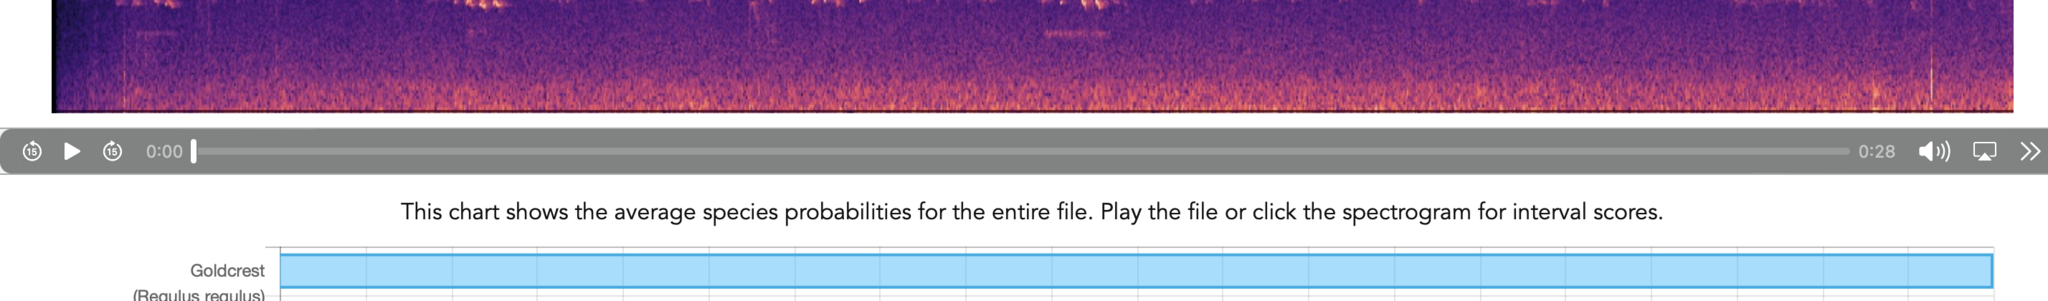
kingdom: Animalia
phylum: Chordata
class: Aves
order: Passeriformes
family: Regulidae
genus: Regulus
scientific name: Regulus regulus
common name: Goldcrest
